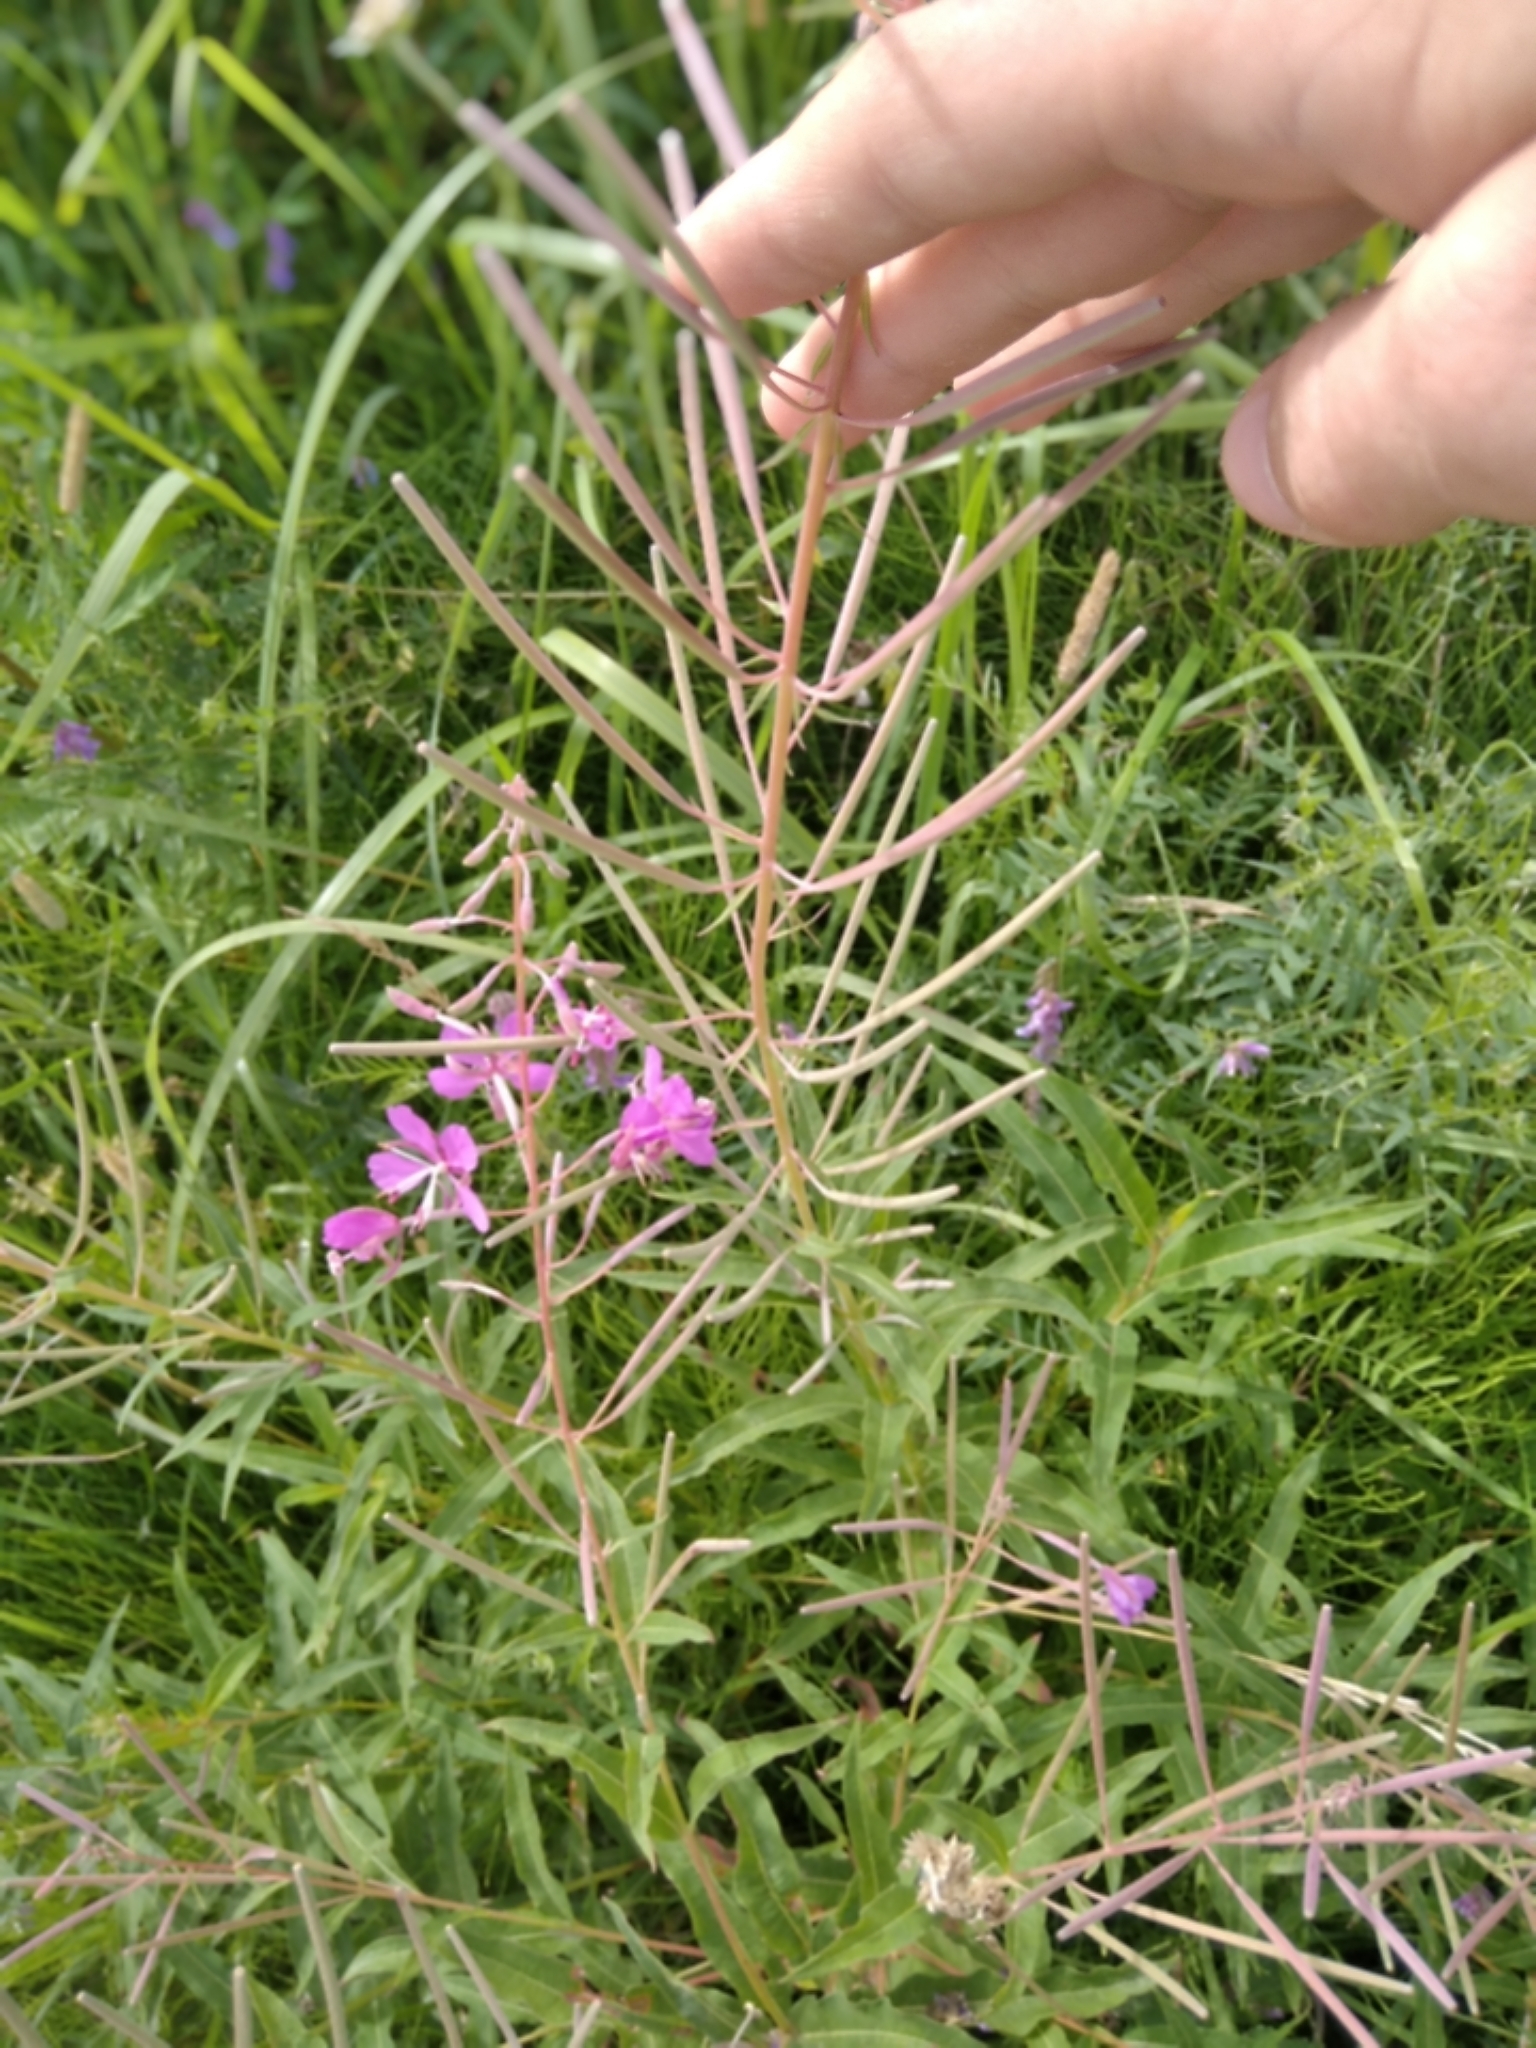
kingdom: Plantae
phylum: Tracheophyta
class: Magnoliopsida
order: Myrtales
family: Onagraceae
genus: Chamaenerion
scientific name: Chamaenerion angustifolium
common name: Fireweed
